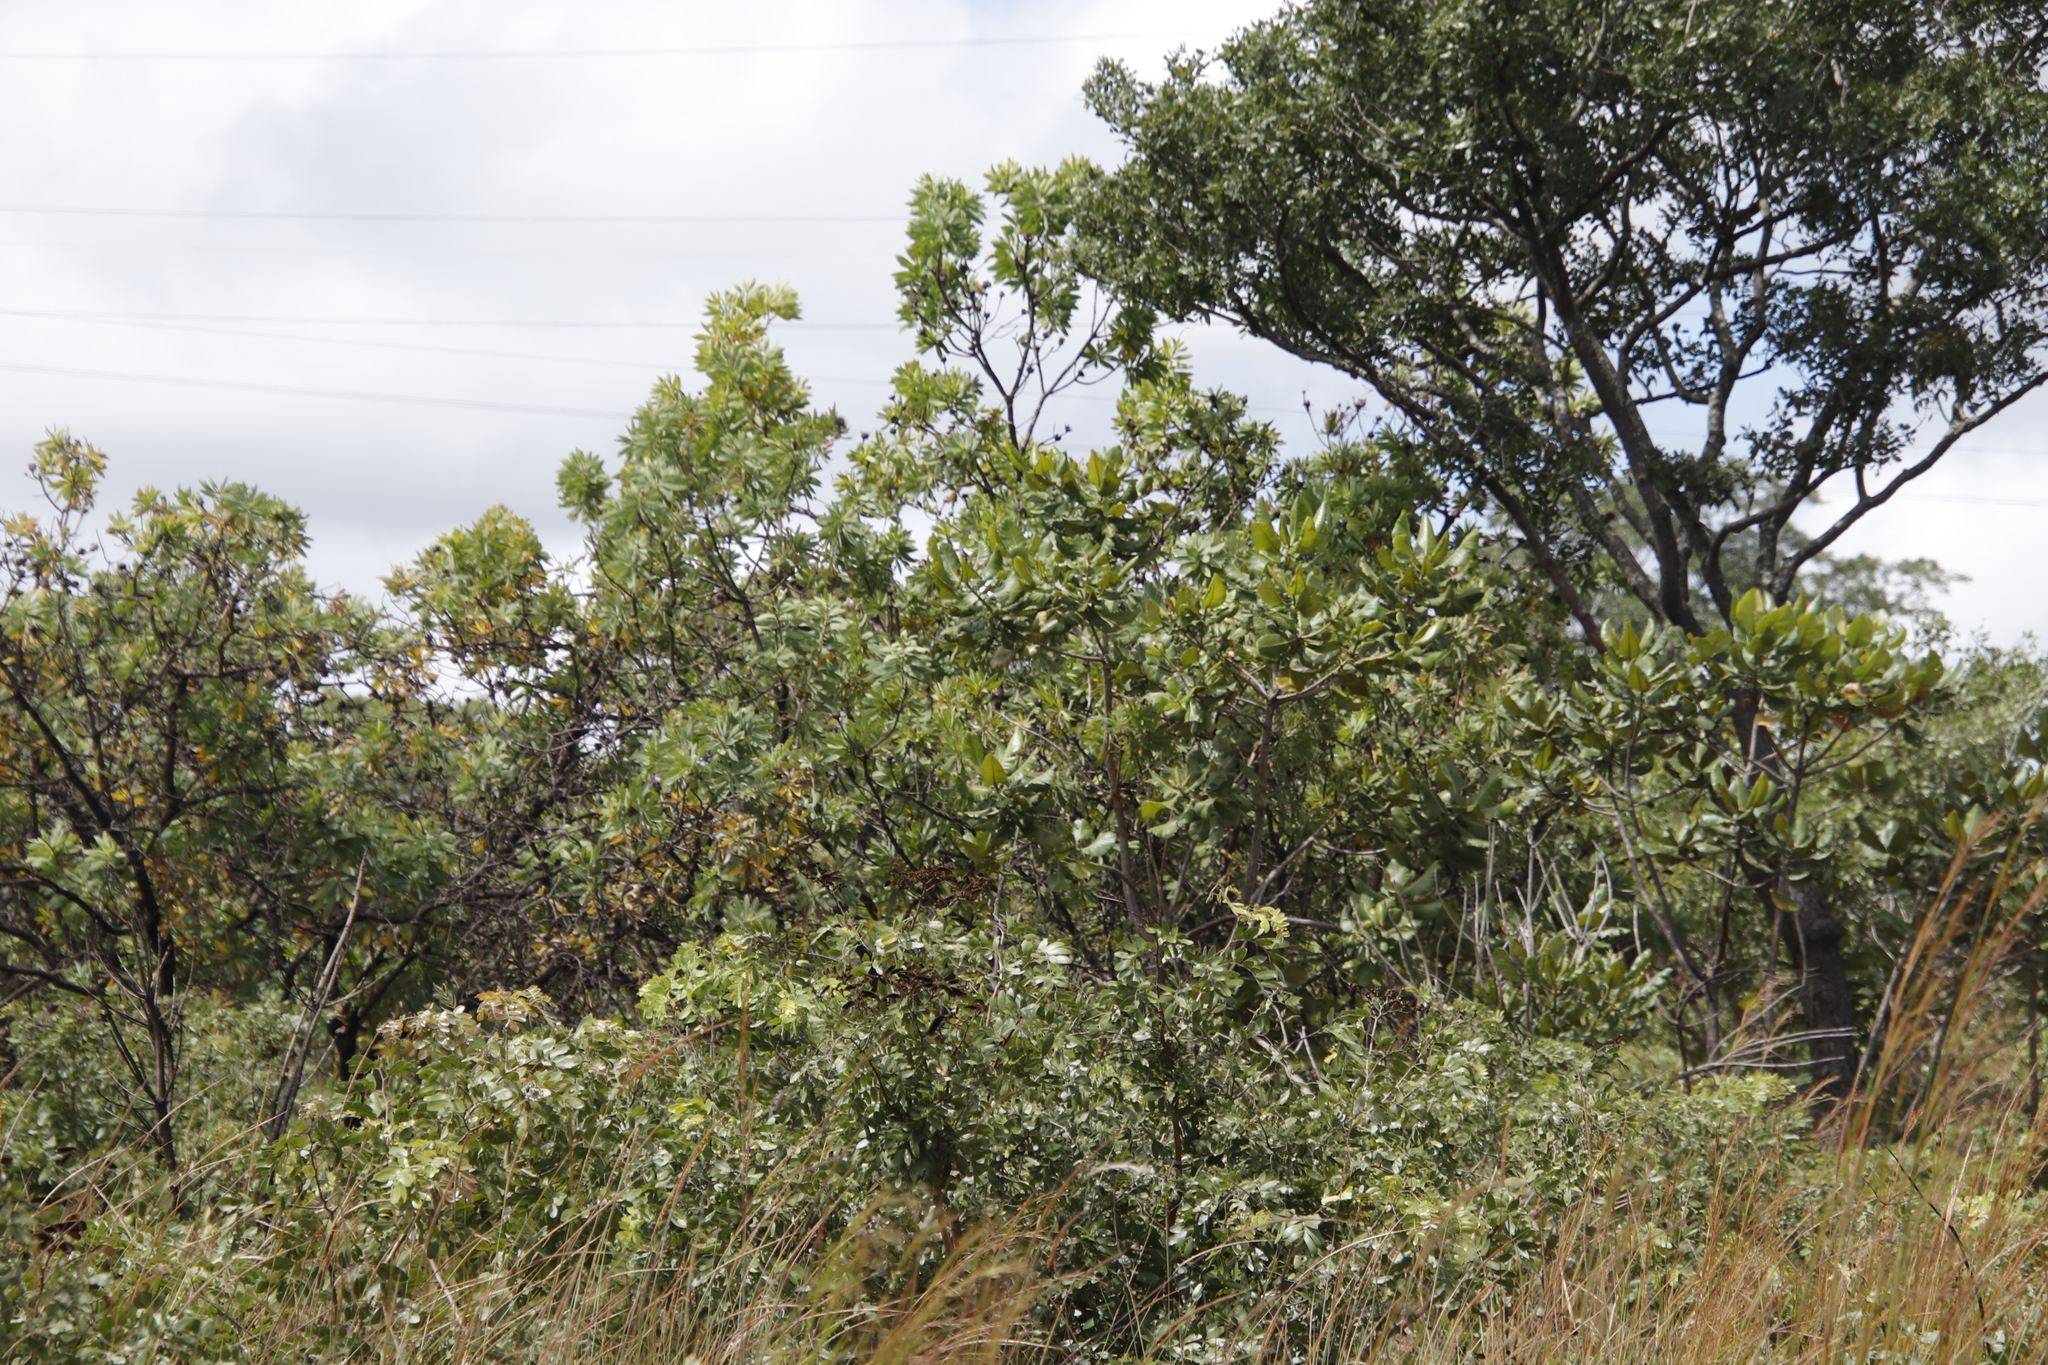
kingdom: Plantae
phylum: Tracheophyta
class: Magnoliopsida
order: Proteales
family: Proteaceae
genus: Protea
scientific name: Protea angolensis
